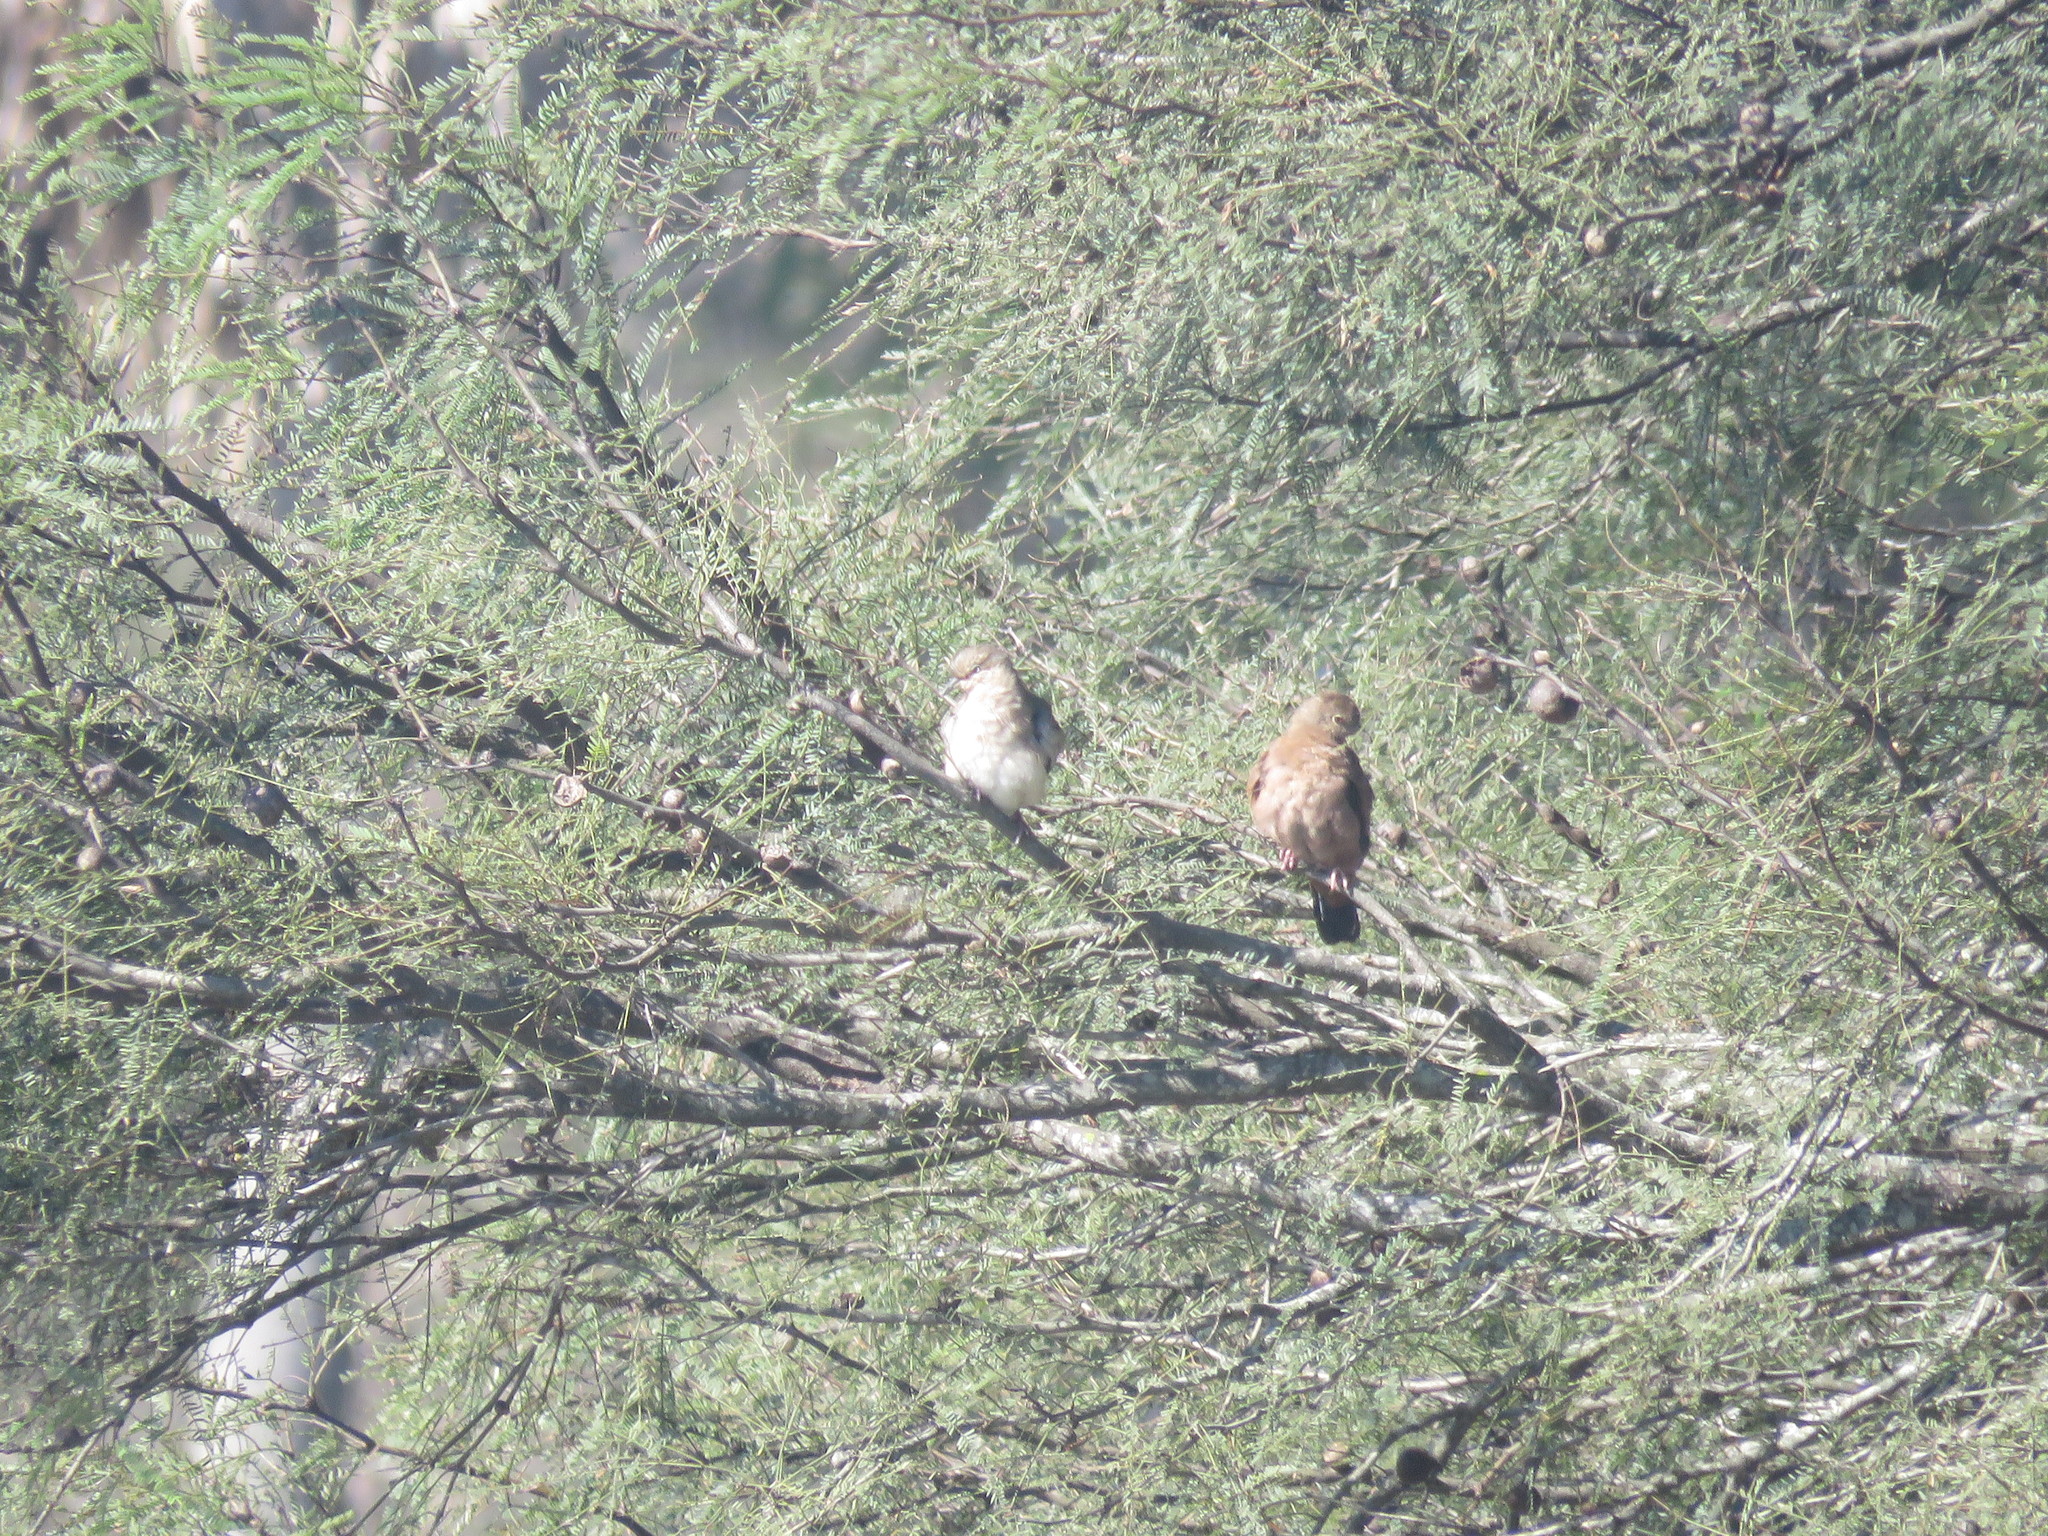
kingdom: Animalia
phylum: Chordata
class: Aves
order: Columbiformes
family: Columbidae
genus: Columbina
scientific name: Columbina talpacoti
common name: Ruddy ground dove
